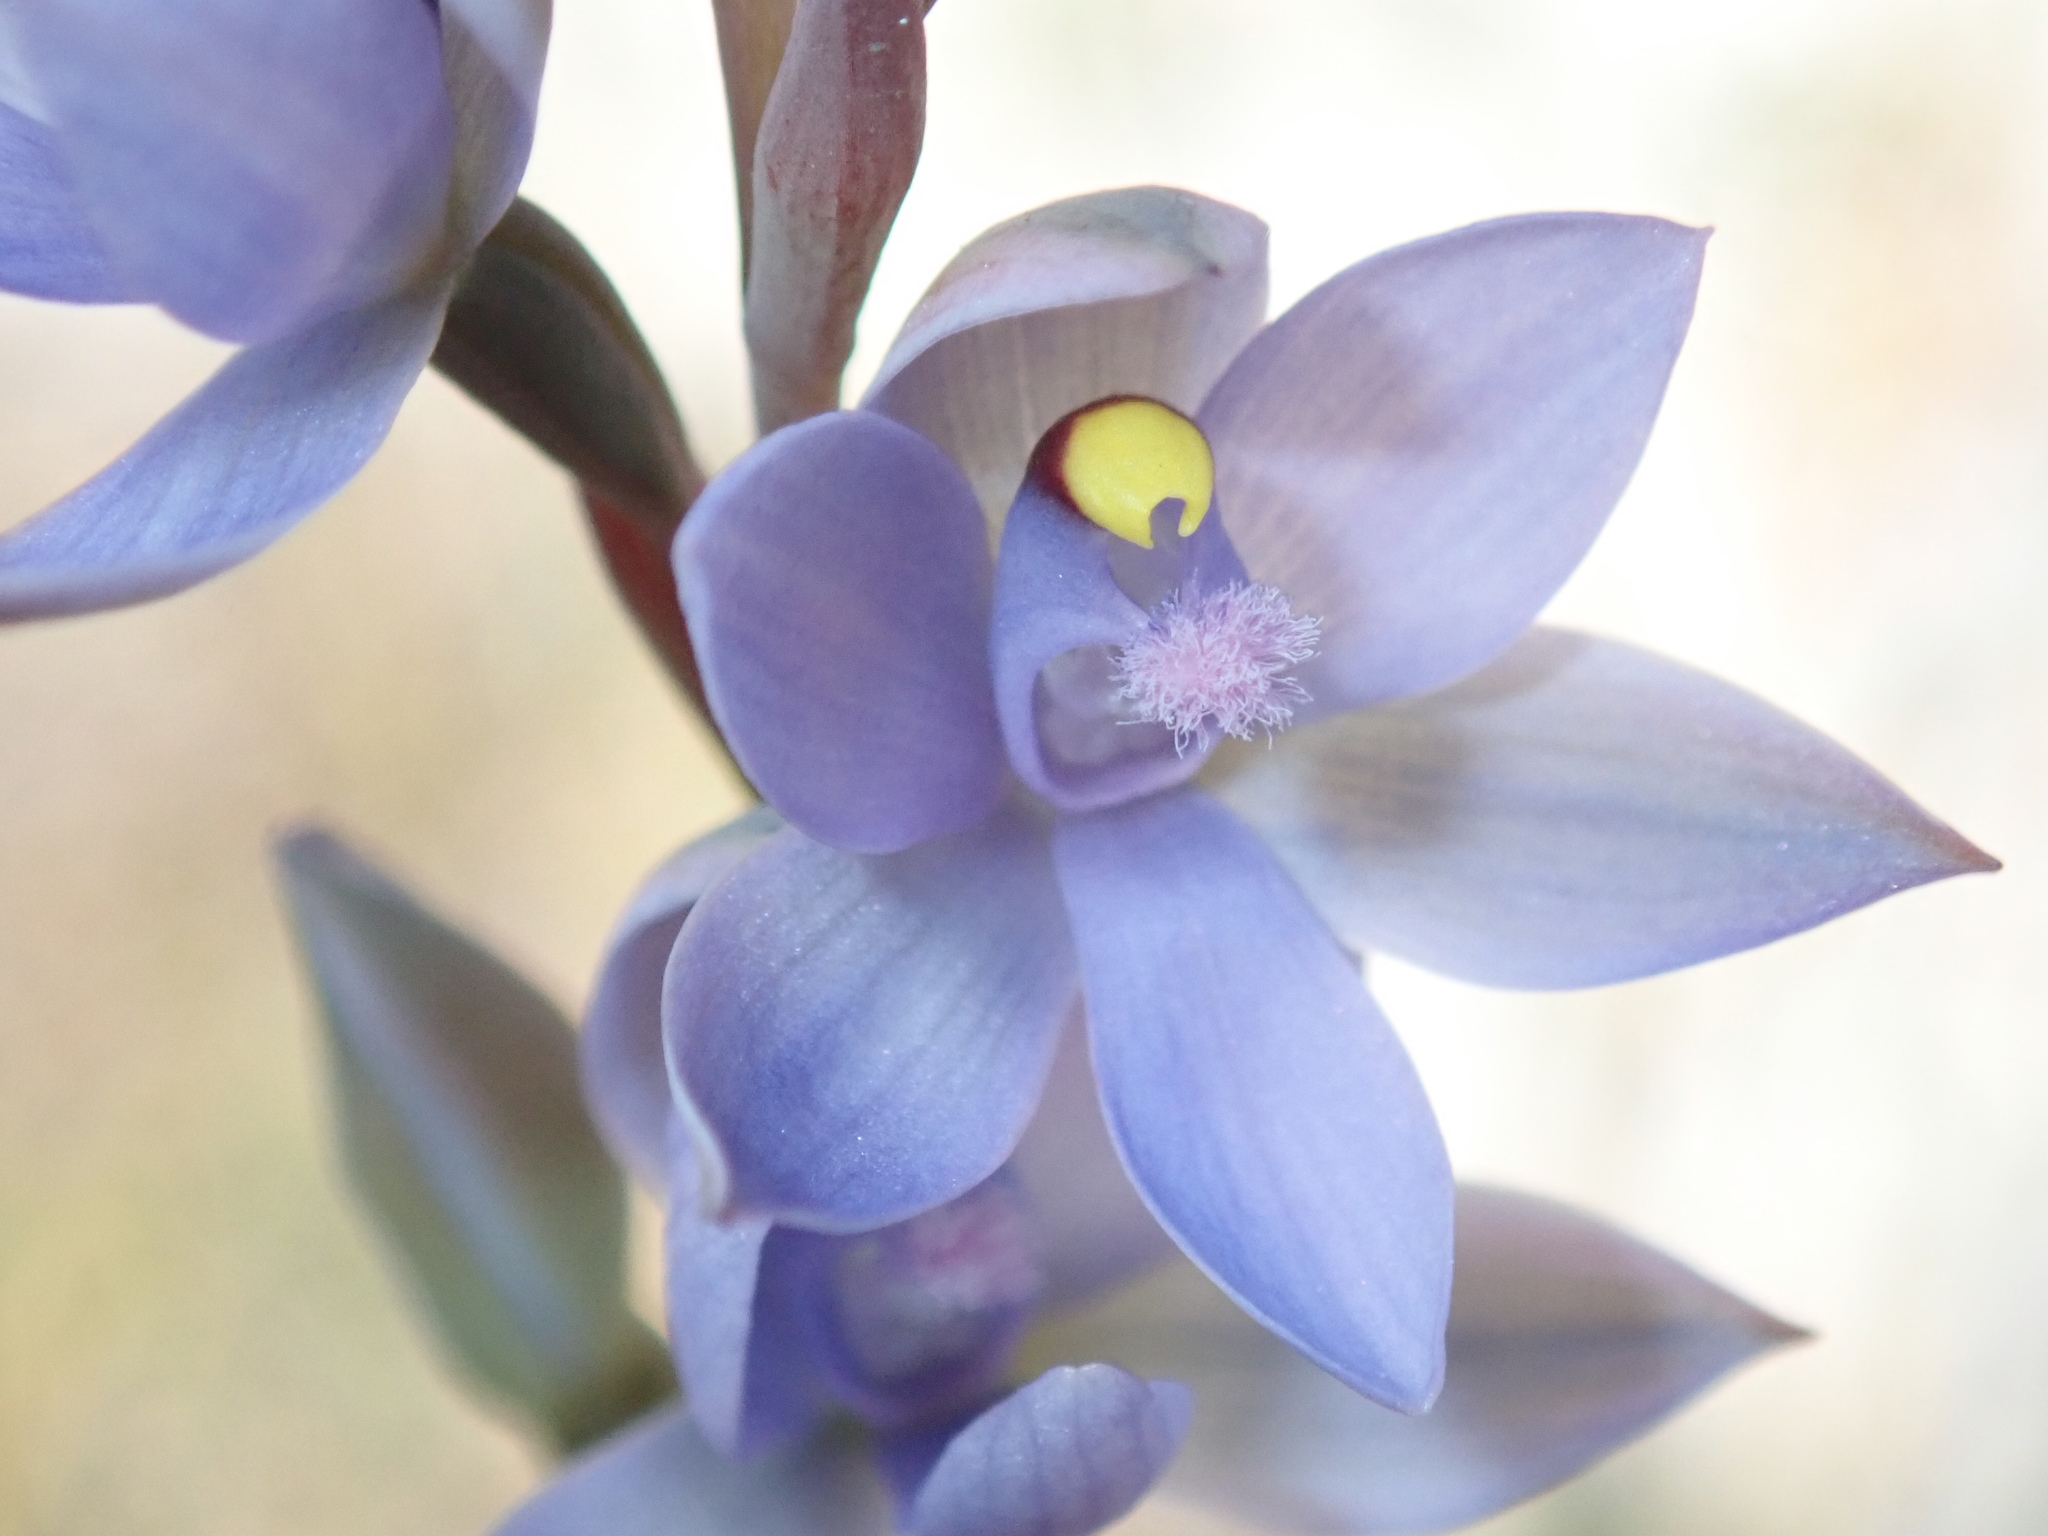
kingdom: Plantae
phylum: Tracheophyta
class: Liliopsida
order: Asparagales
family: Orchidaceae
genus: Thelymitra
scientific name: Thelymitra malvina
